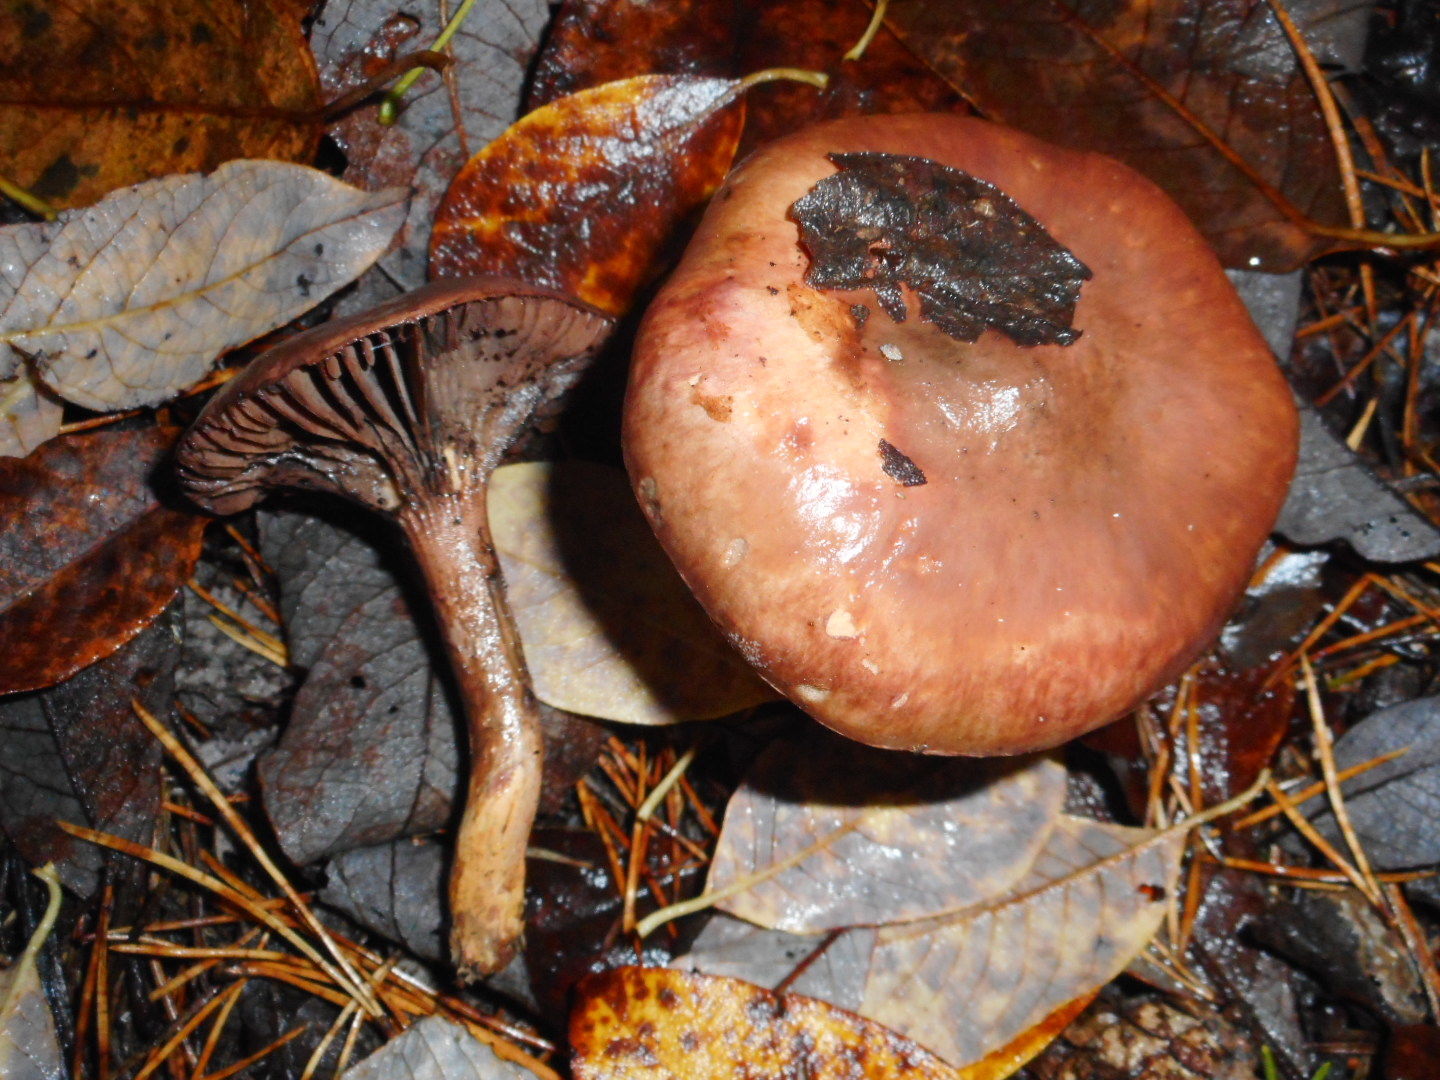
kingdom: Fungi
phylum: Basidiomycota
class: Agaricomycetes
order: Boletales
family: Gomphidiaceae
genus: Chroogomphus
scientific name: Chroogomphus rutilus
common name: Copper spike
